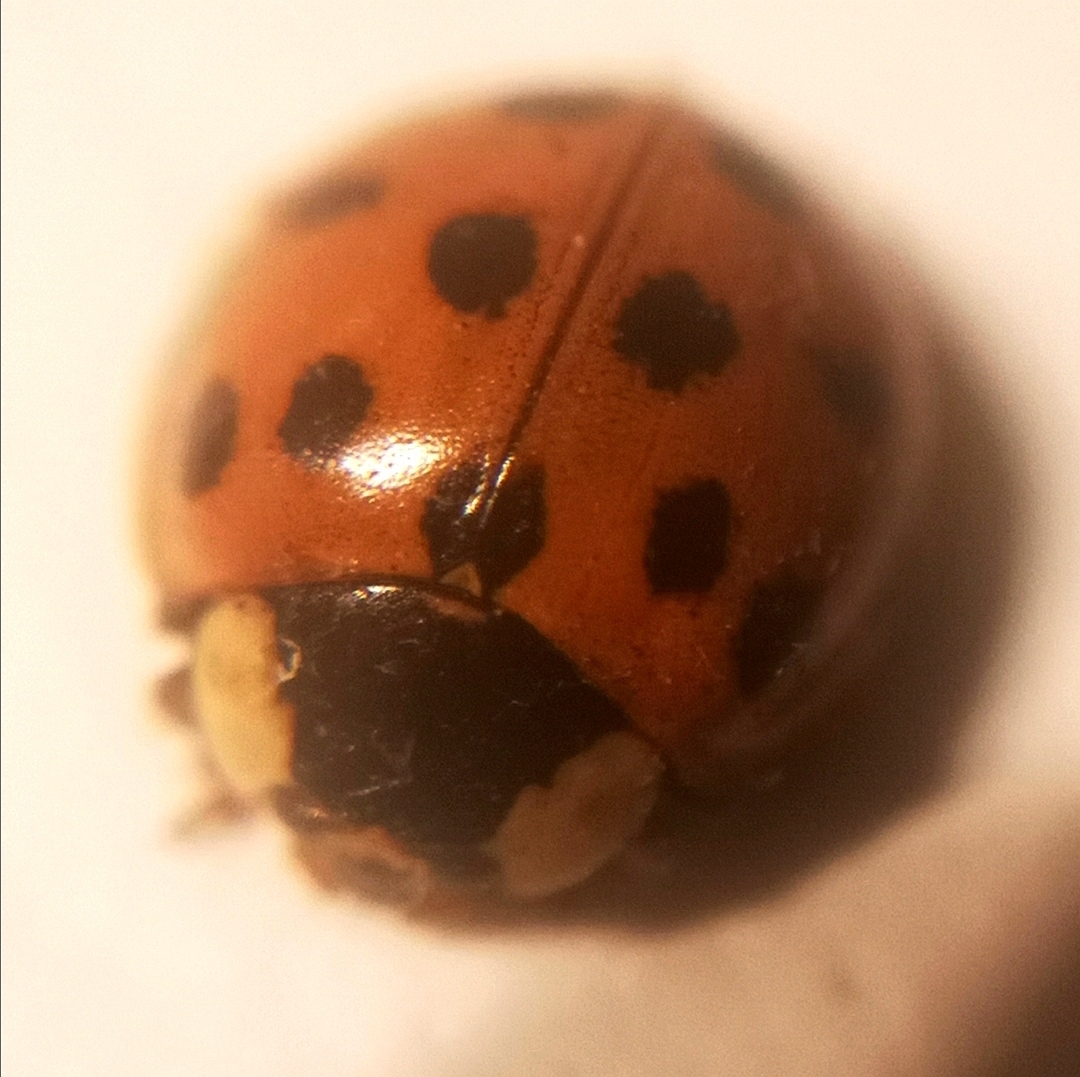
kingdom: Animalia
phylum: Arthropoda
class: Insecta
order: Coleoptera
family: Coccinellidae
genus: Harmonia
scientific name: Harmonia axyridis
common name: Harlequin ladybird
